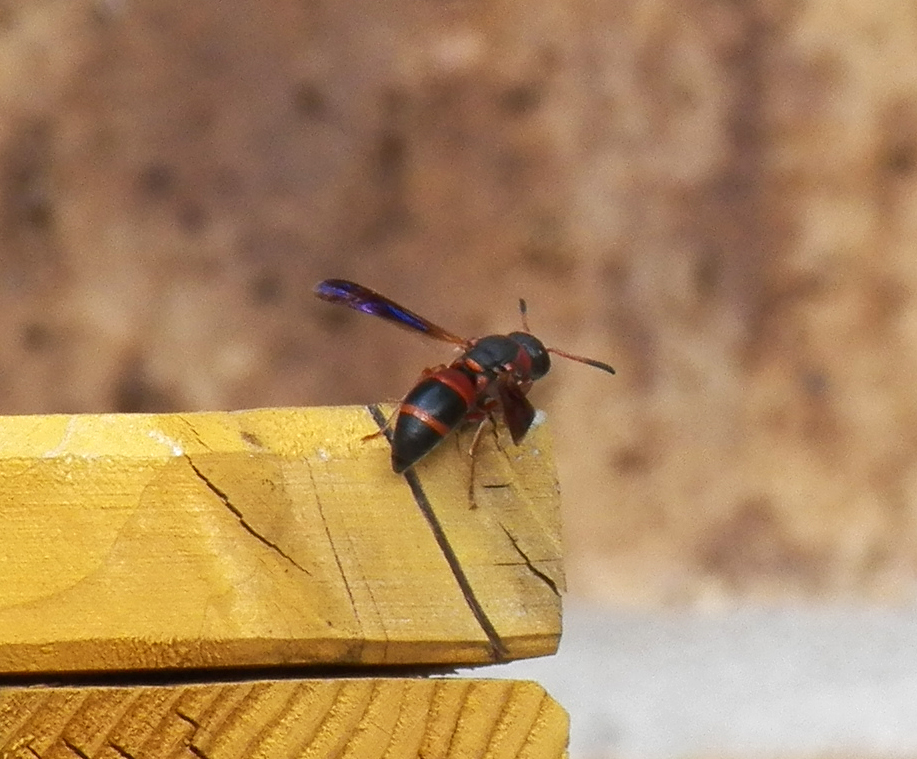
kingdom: Animalia
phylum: Arthropoda
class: Insecta
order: Hymenoptera
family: Eumenidae
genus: Pachodynerus
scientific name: Pachodynerus erynnis
